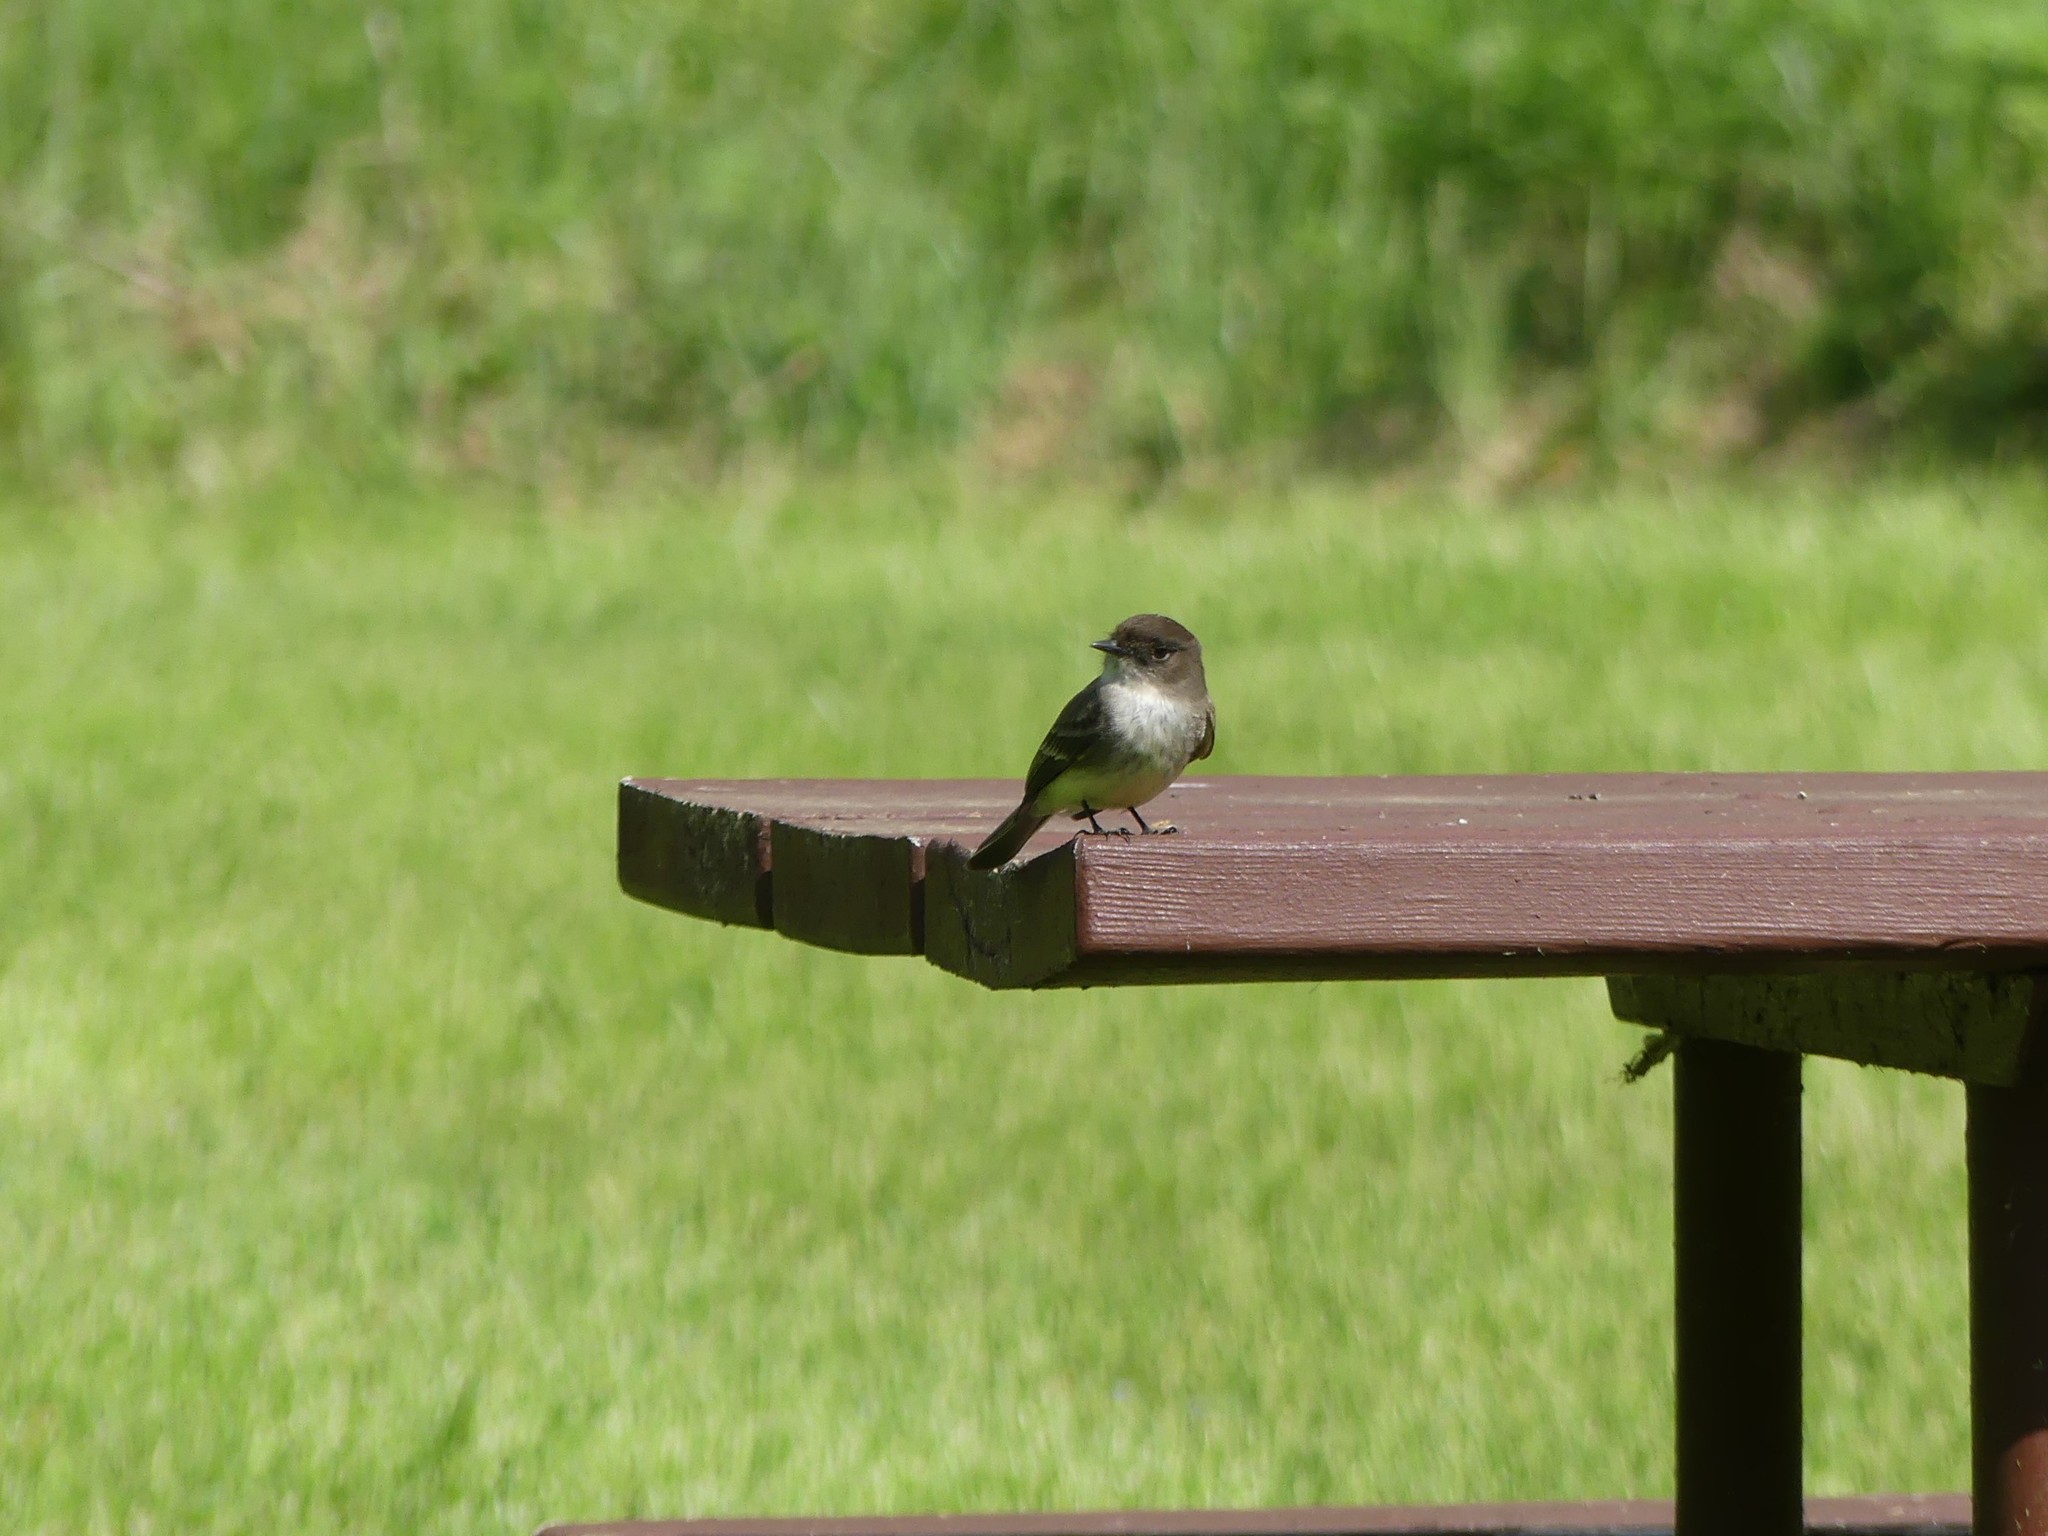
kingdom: Animalia
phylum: Chordata
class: Aves
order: Passeriformes
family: Tyrannidae
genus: Sayornis
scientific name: Sayornis phoebe
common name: Eastern phoebe
